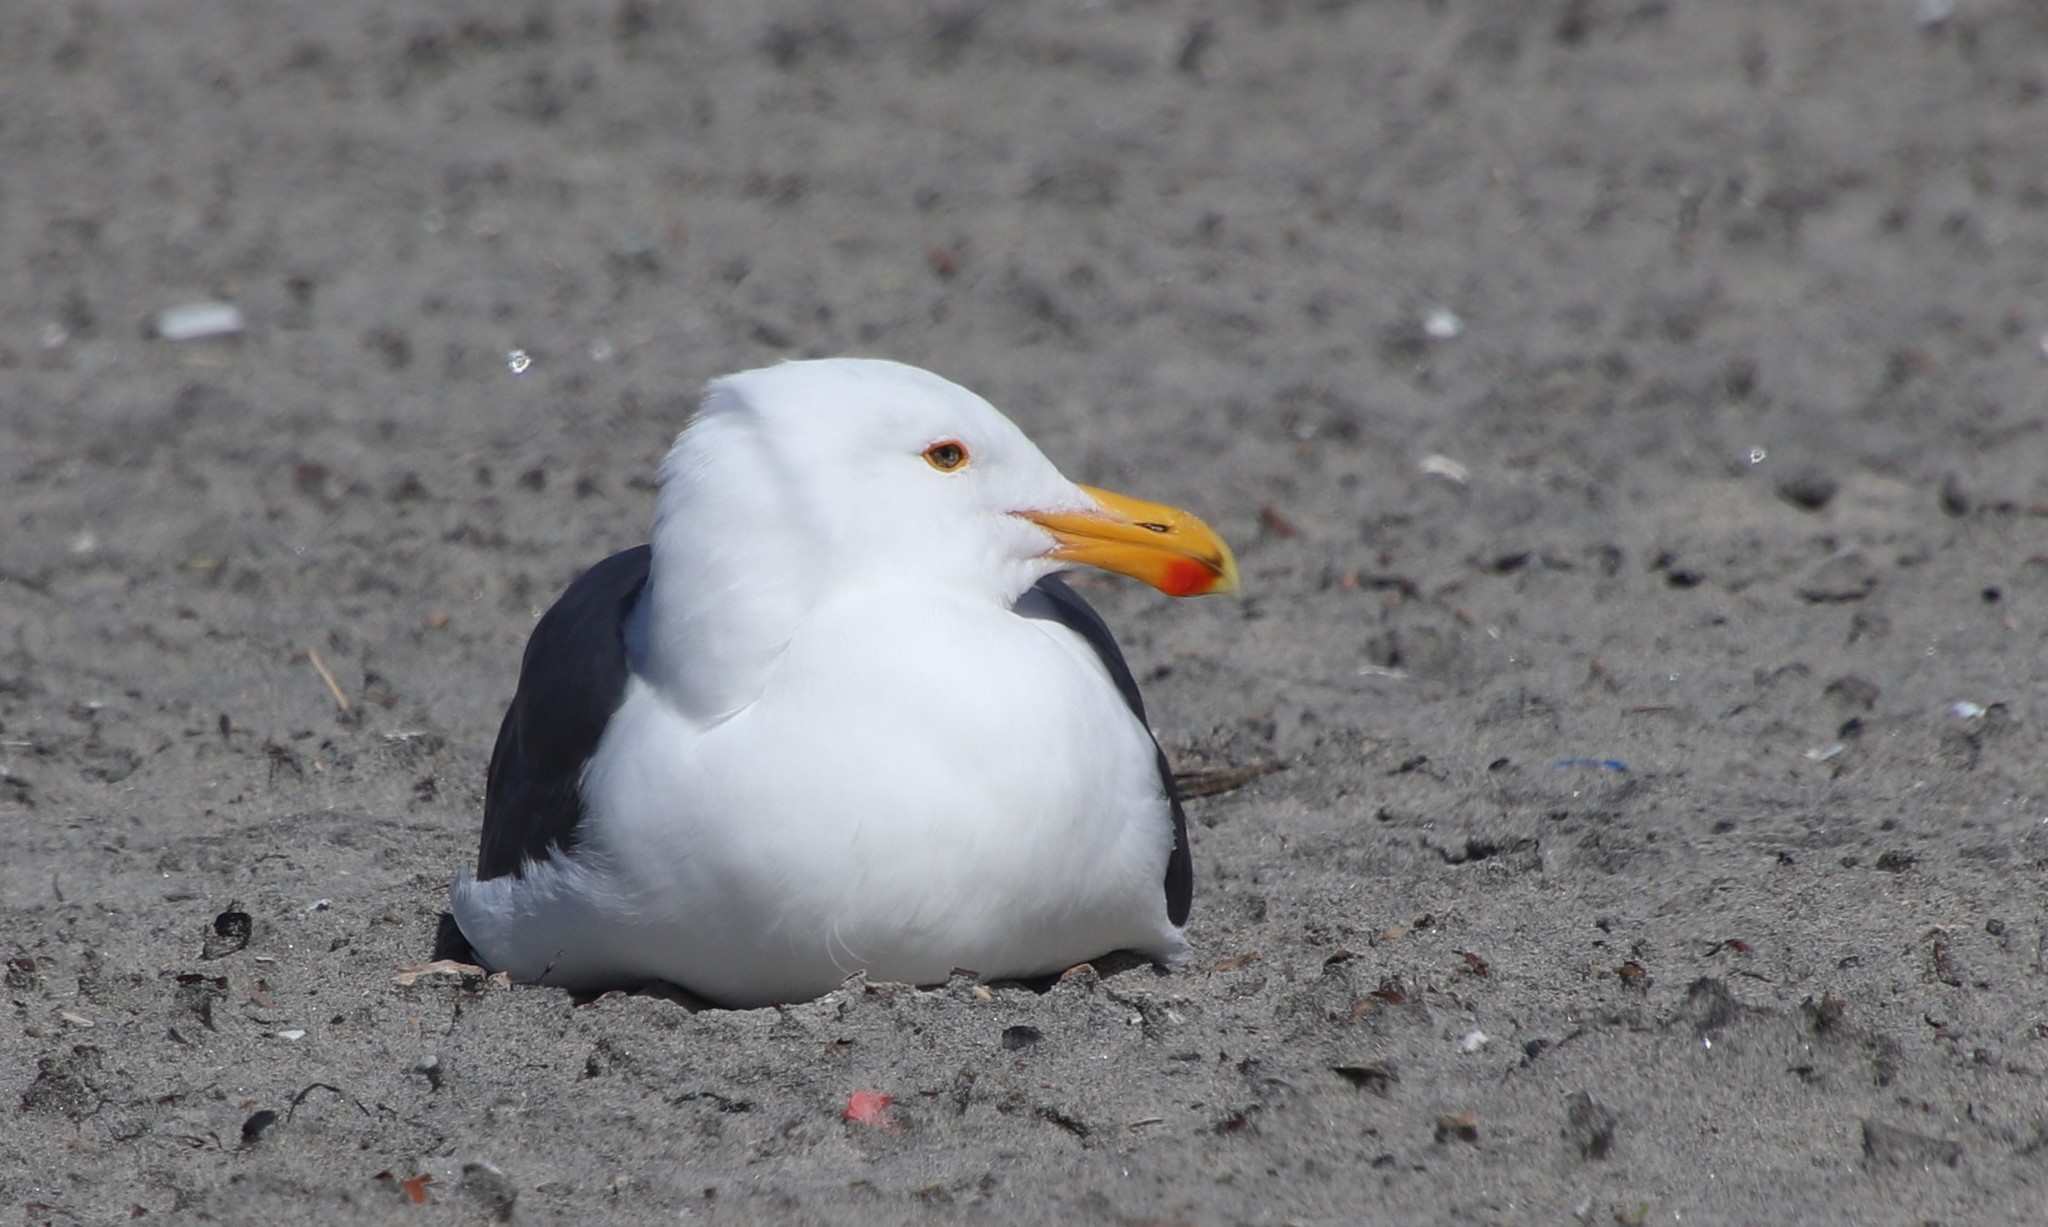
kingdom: Animalia
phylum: Chordata
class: Aves
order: Charadriiformes
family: Laridae
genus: Larus
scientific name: Larus occidentalis
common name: Western gull
